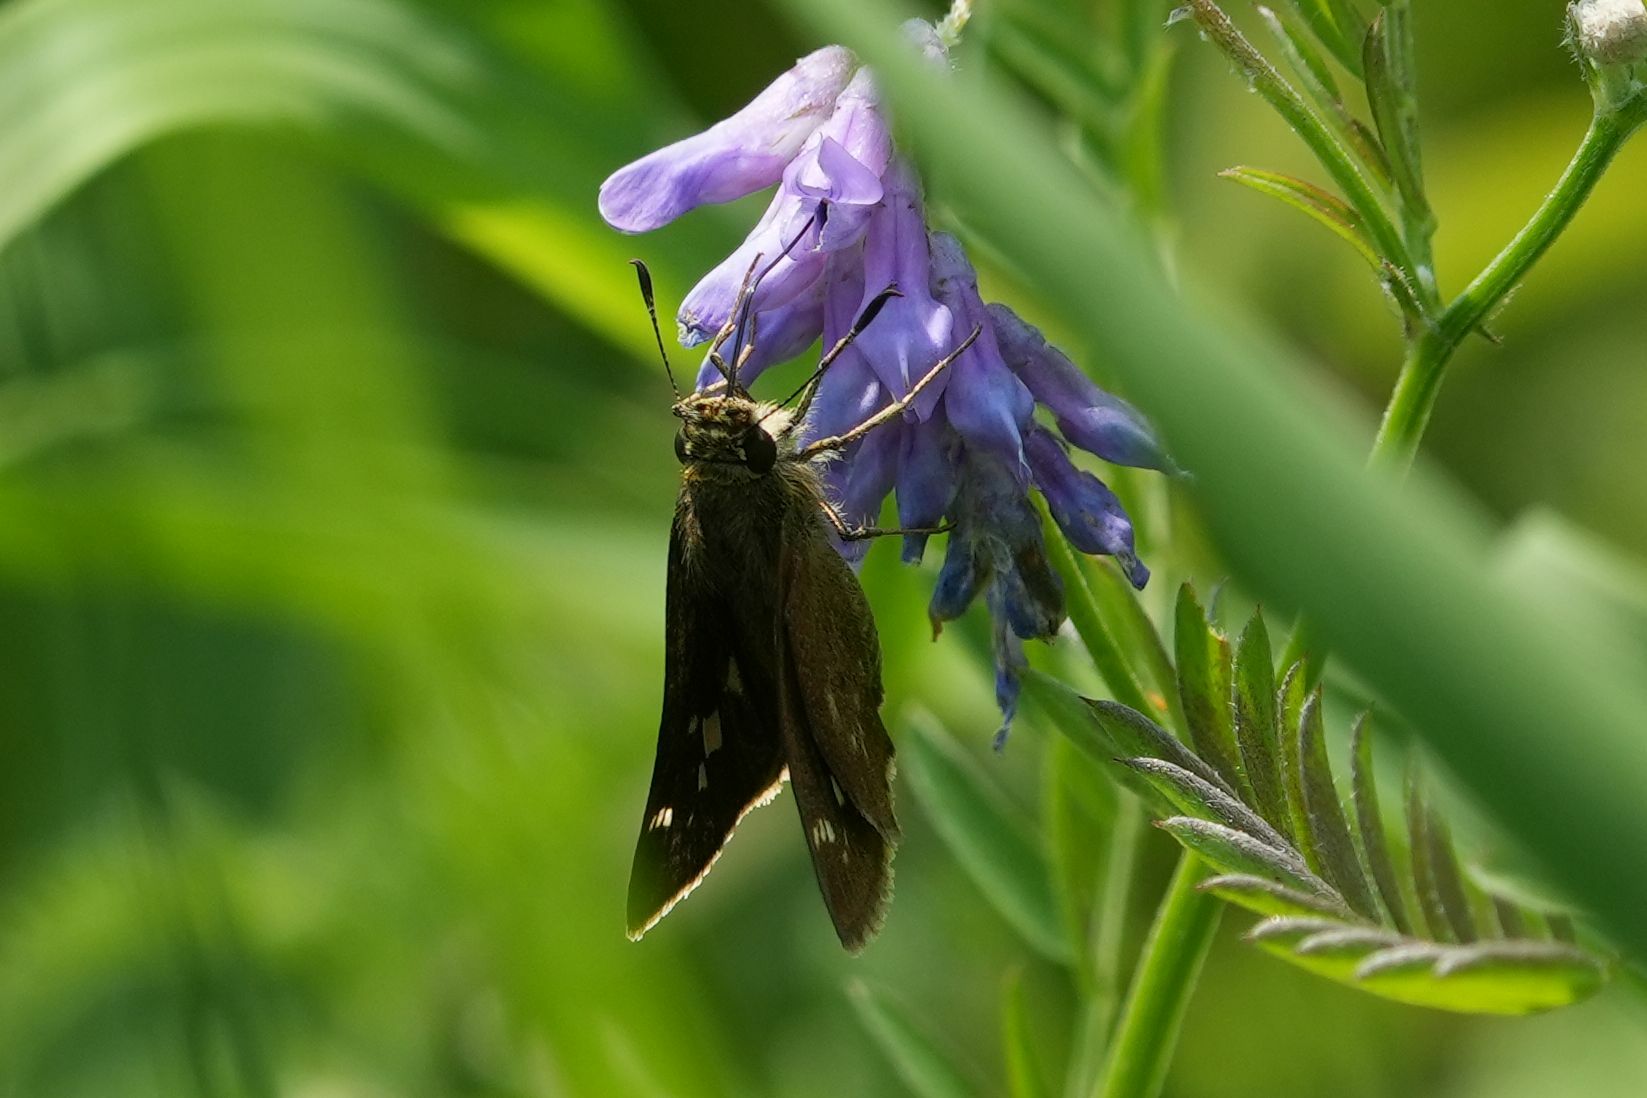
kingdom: Animalia
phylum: Arthropoda
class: Insecta
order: Lepidoptera
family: Hesperiidae
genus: Vernia
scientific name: Vernia verna
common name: Little glassywing
